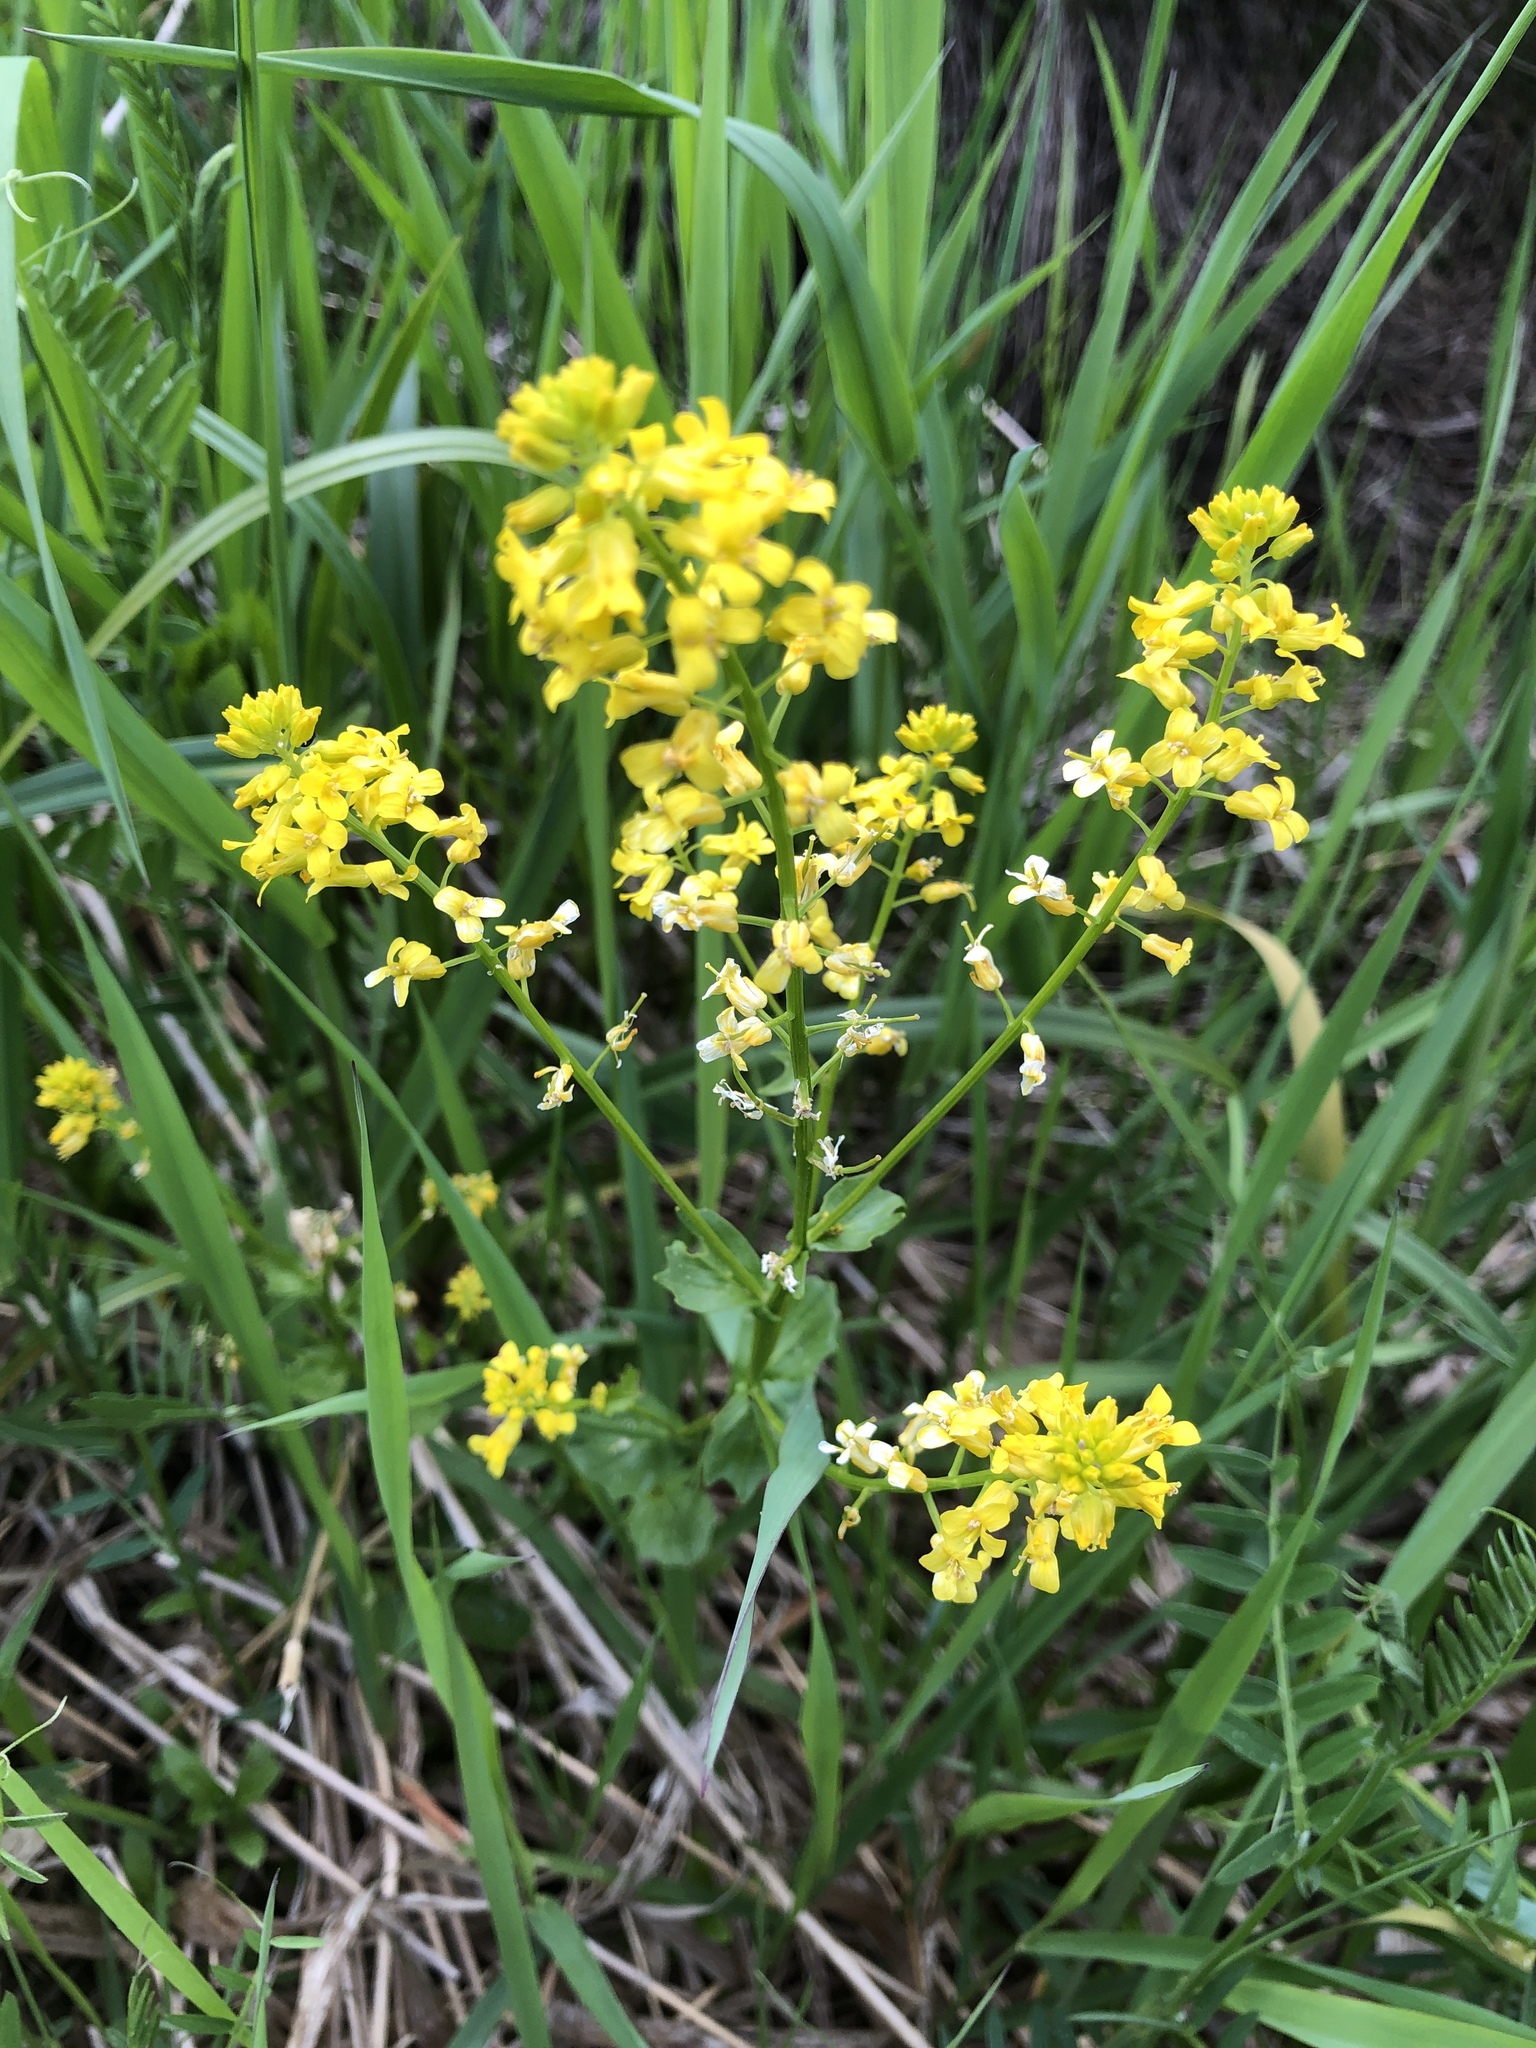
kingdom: Plantae
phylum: Tracheophyta
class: Magnoliopsida
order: Brassicales
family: Brassicaceae
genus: Barbarea
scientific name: Barbarea vulgaris
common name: Cressy-greens
